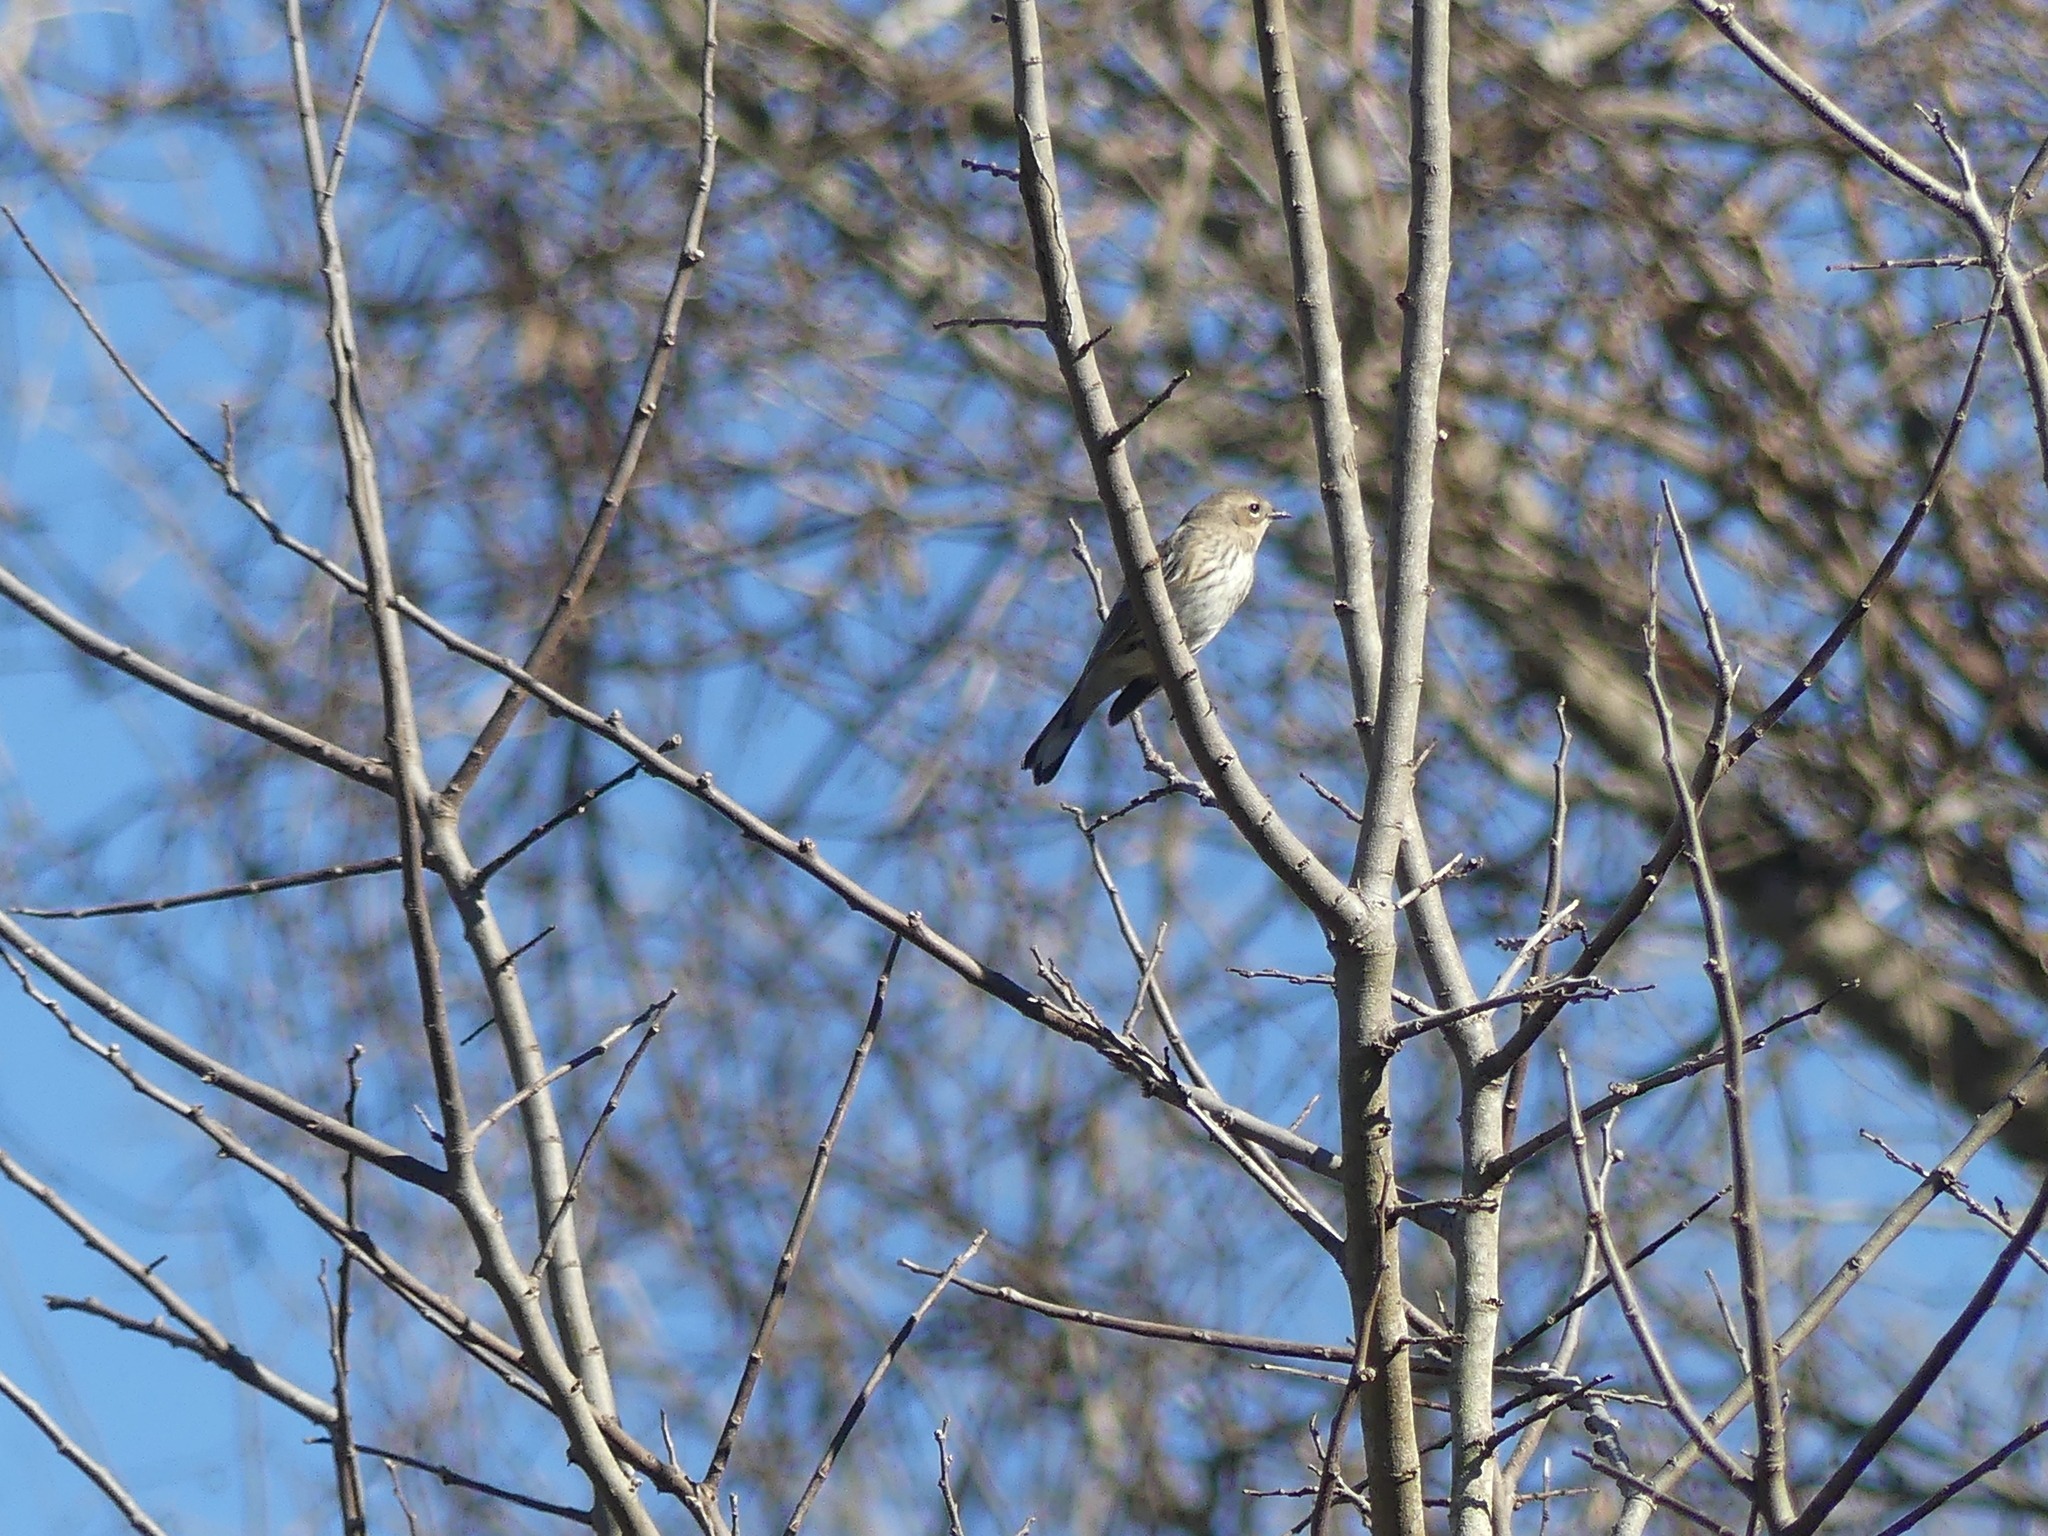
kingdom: Animalia
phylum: Chordata
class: Aves
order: Passeriformes
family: Parulidae
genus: Setophaga
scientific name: Setophaga coronata
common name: Myrtle warbler
